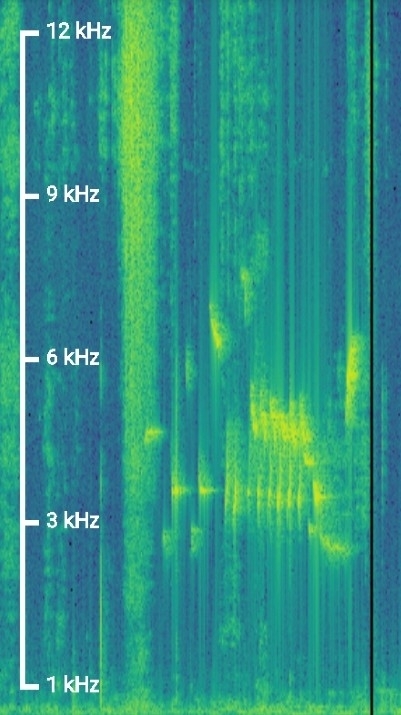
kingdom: Animalia
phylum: Chordata
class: Aves
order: Passeriformes
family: Troglodytidae
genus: Troglodytes
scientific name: Troglodytes troglodytes
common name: Eurasian wren
